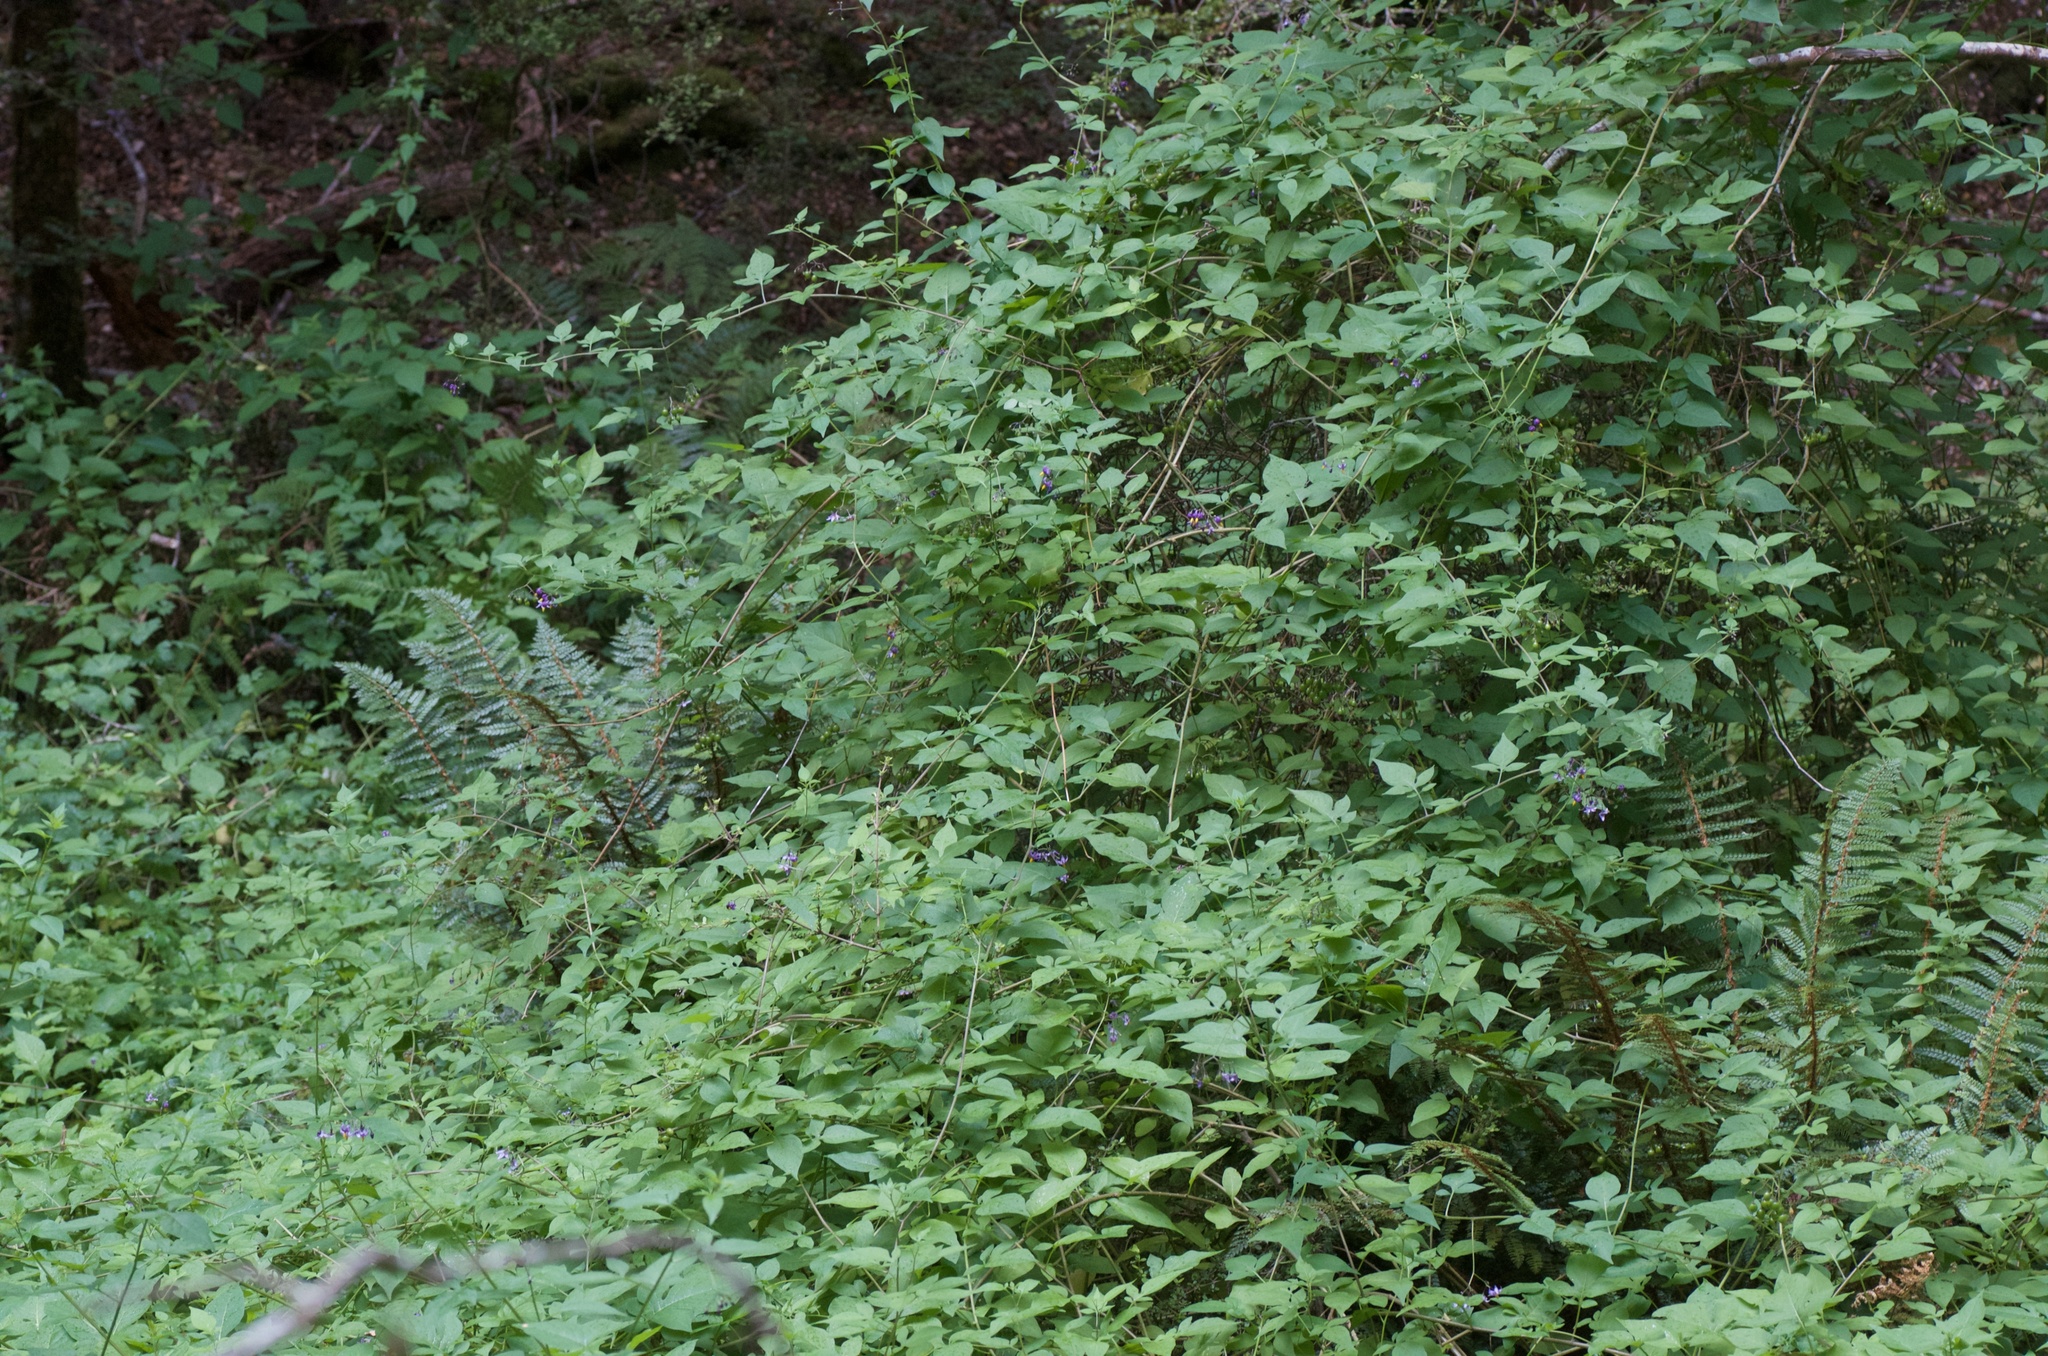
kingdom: Plantae
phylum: Tracheophyta
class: Magnoliopsida
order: Solanales
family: Solanaceae
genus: Solanum
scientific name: Solanum dulcamara
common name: Climbing nightshade
